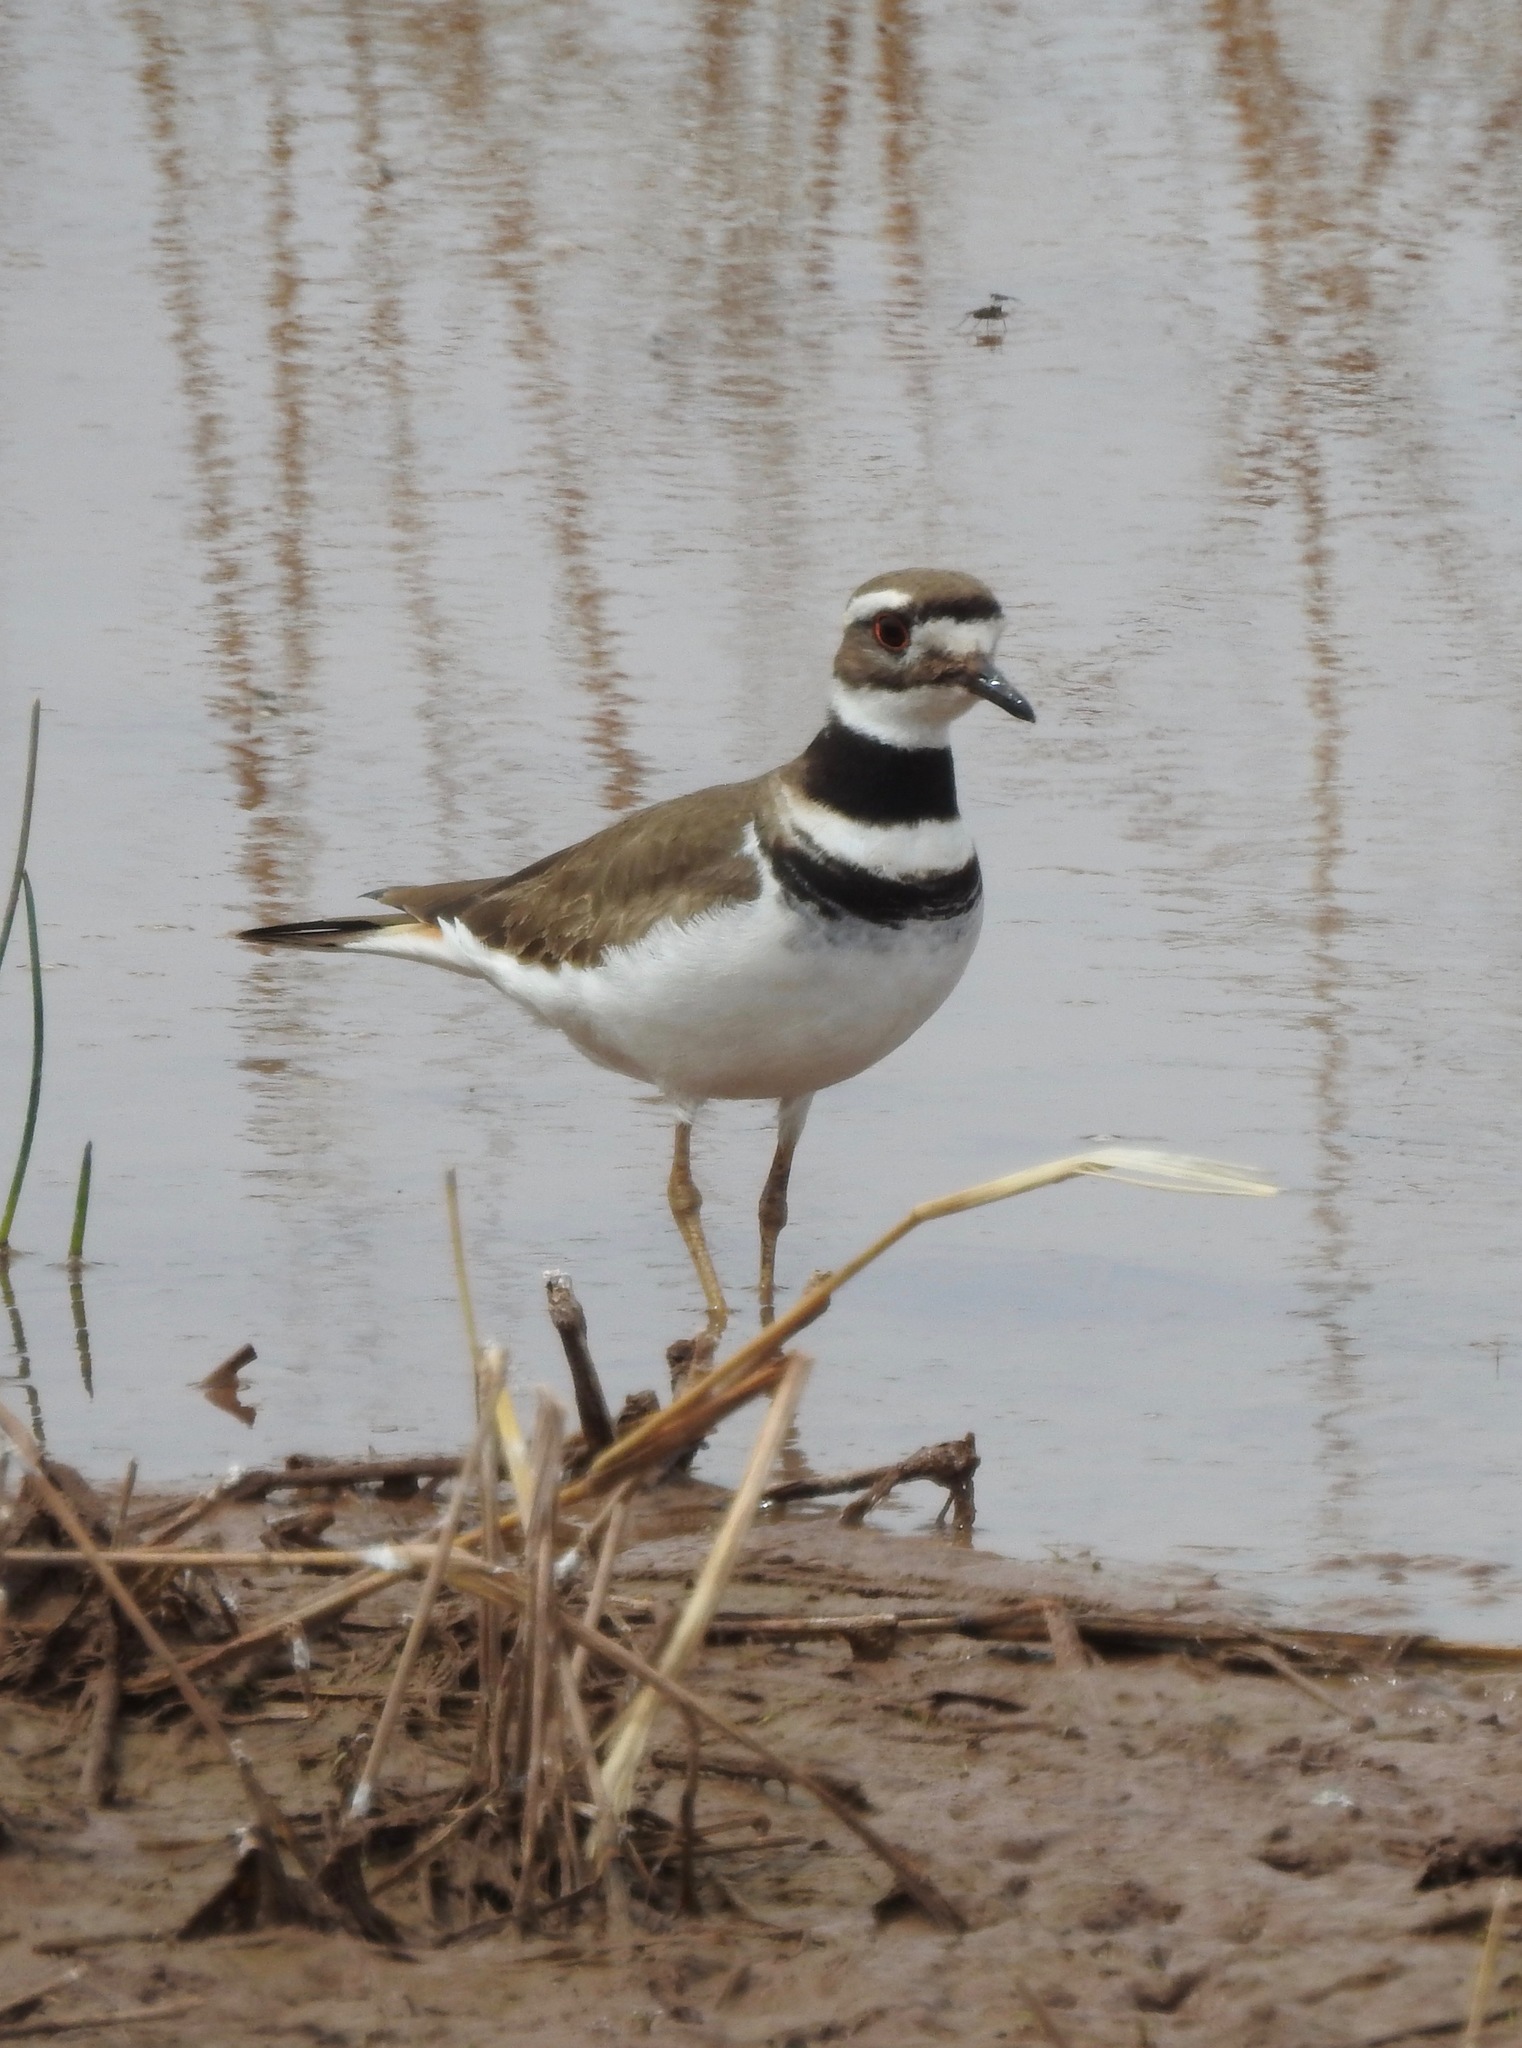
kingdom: Animalia
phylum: Chordata
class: Aves
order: Charadriiformes
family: Charadriidae
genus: Charadrius
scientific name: Charadrius vociferus
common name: Killdeer
